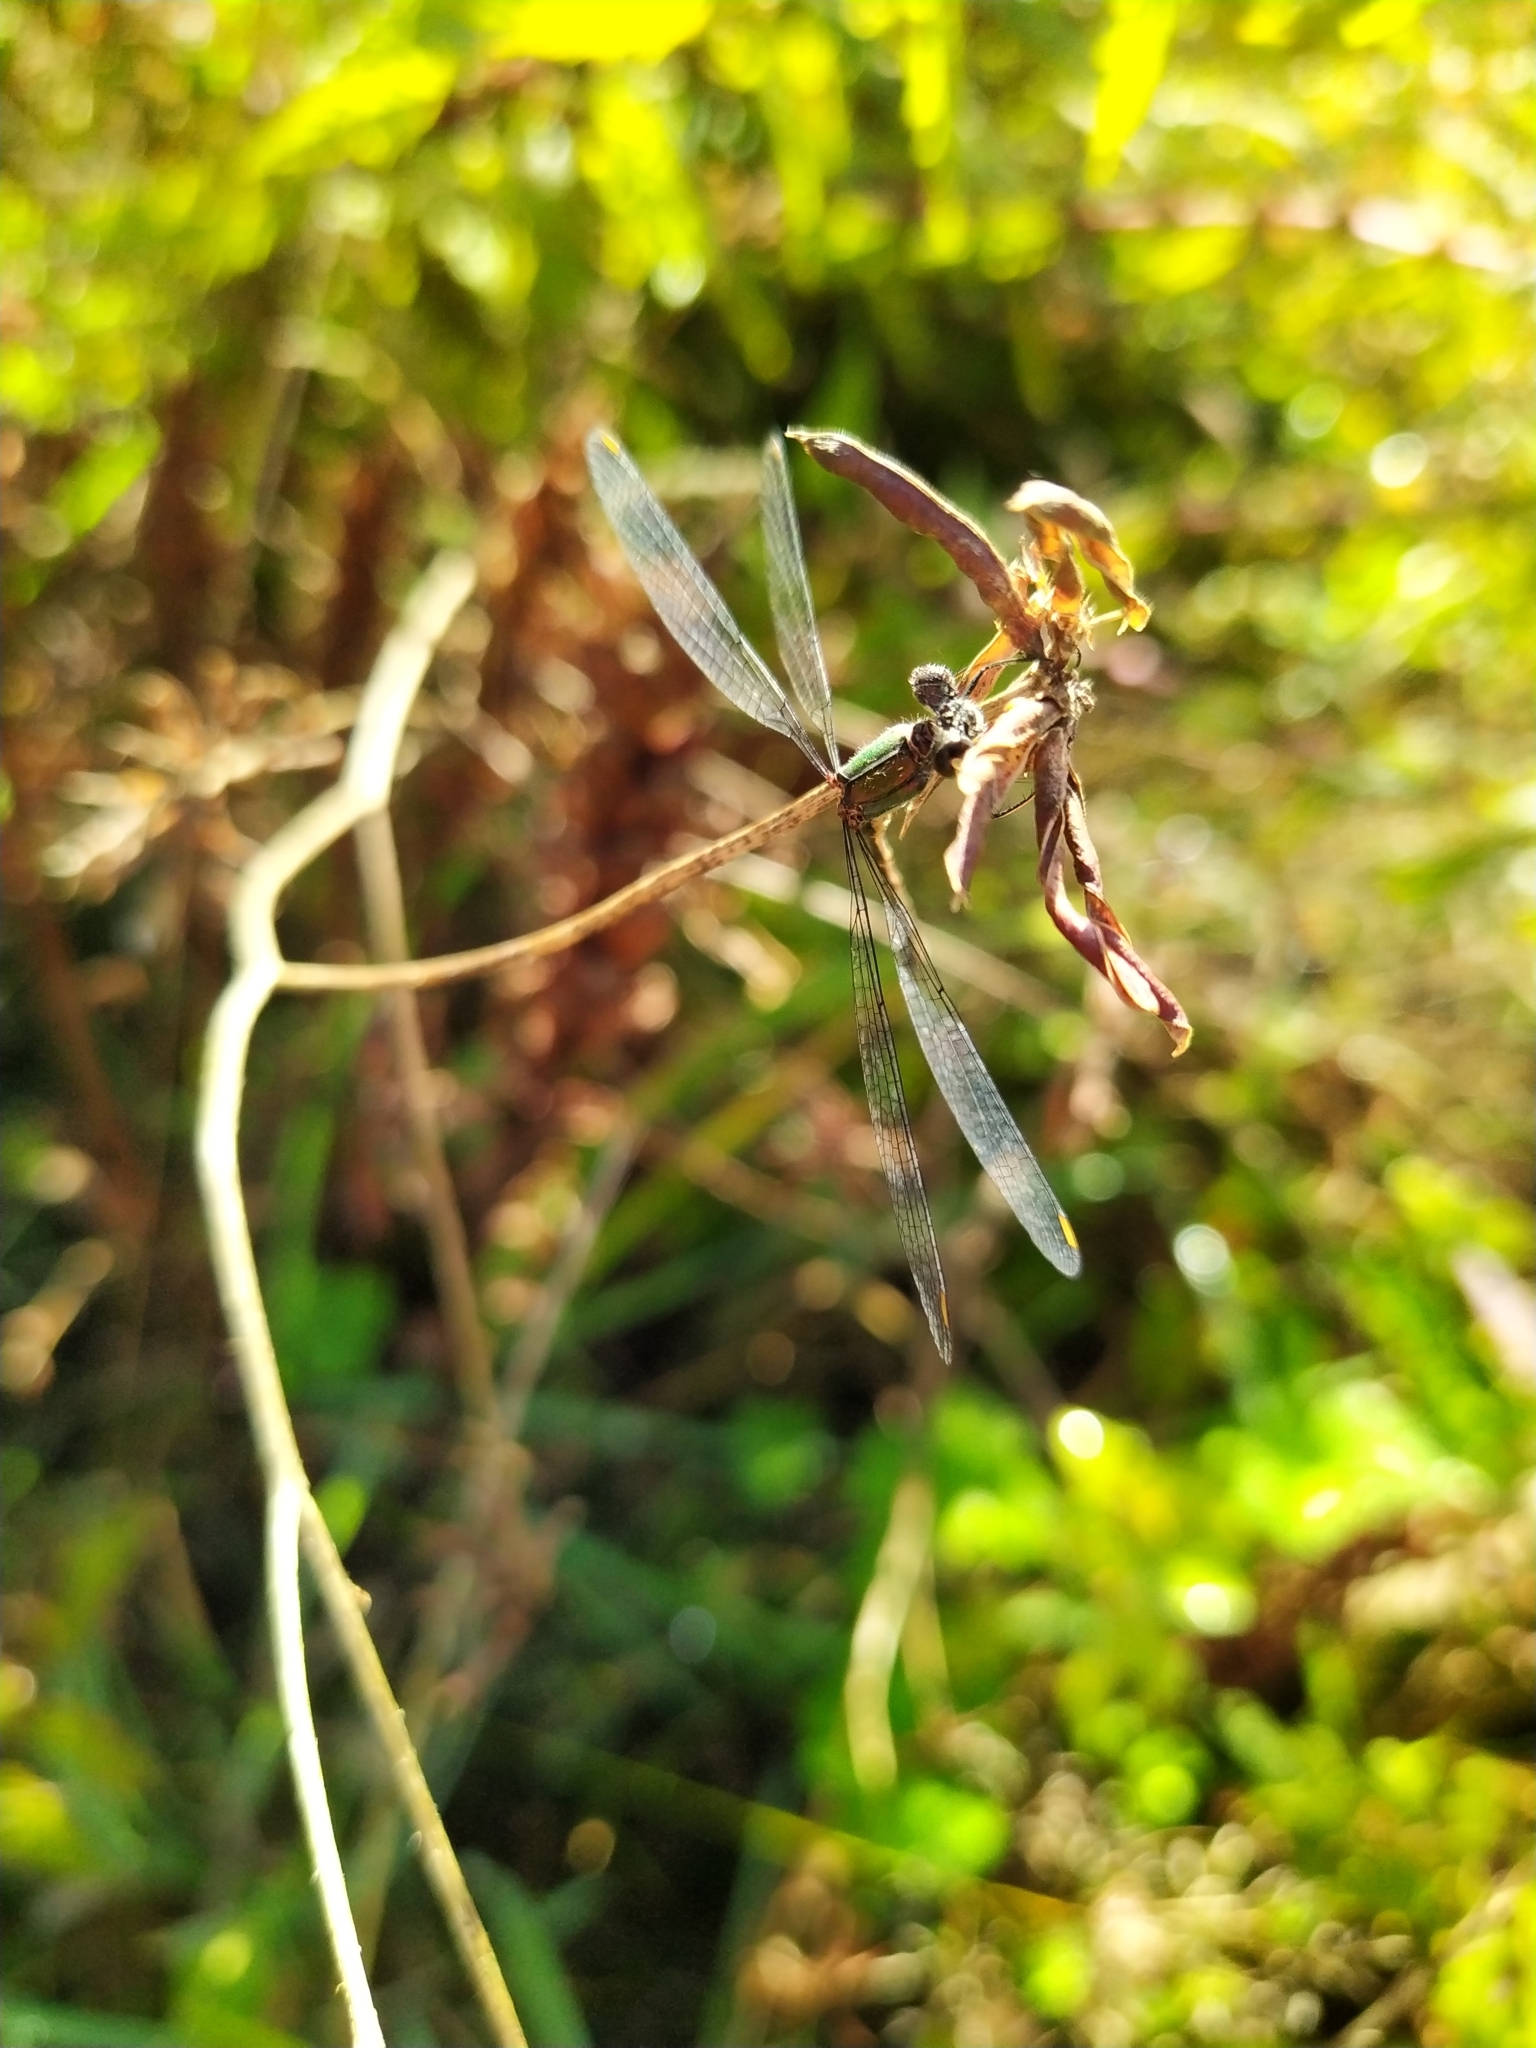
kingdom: Animalia
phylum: Arthropoda
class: Insecta
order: Odonata
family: Lestidae
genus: Chalcolestes
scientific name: Chalcolestes viridis
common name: Green emerald damselfly
